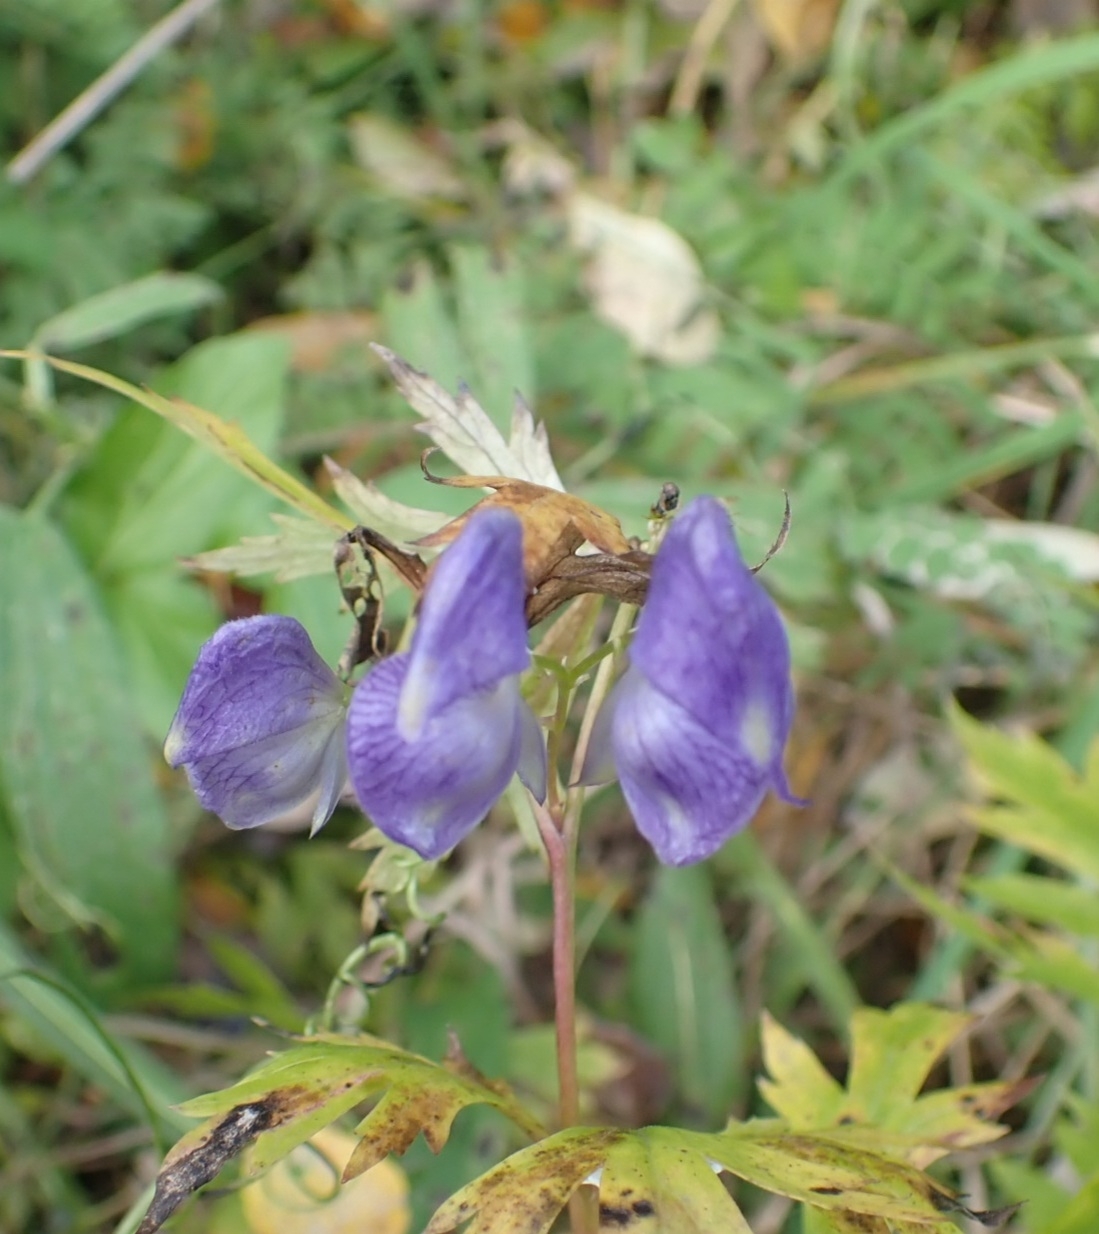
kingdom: Plantae
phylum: Tracheophyta
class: Magnoliopsida
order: Ranunculales
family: Ranunculaceae
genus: Aconitum
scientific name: Aconitum volubile
